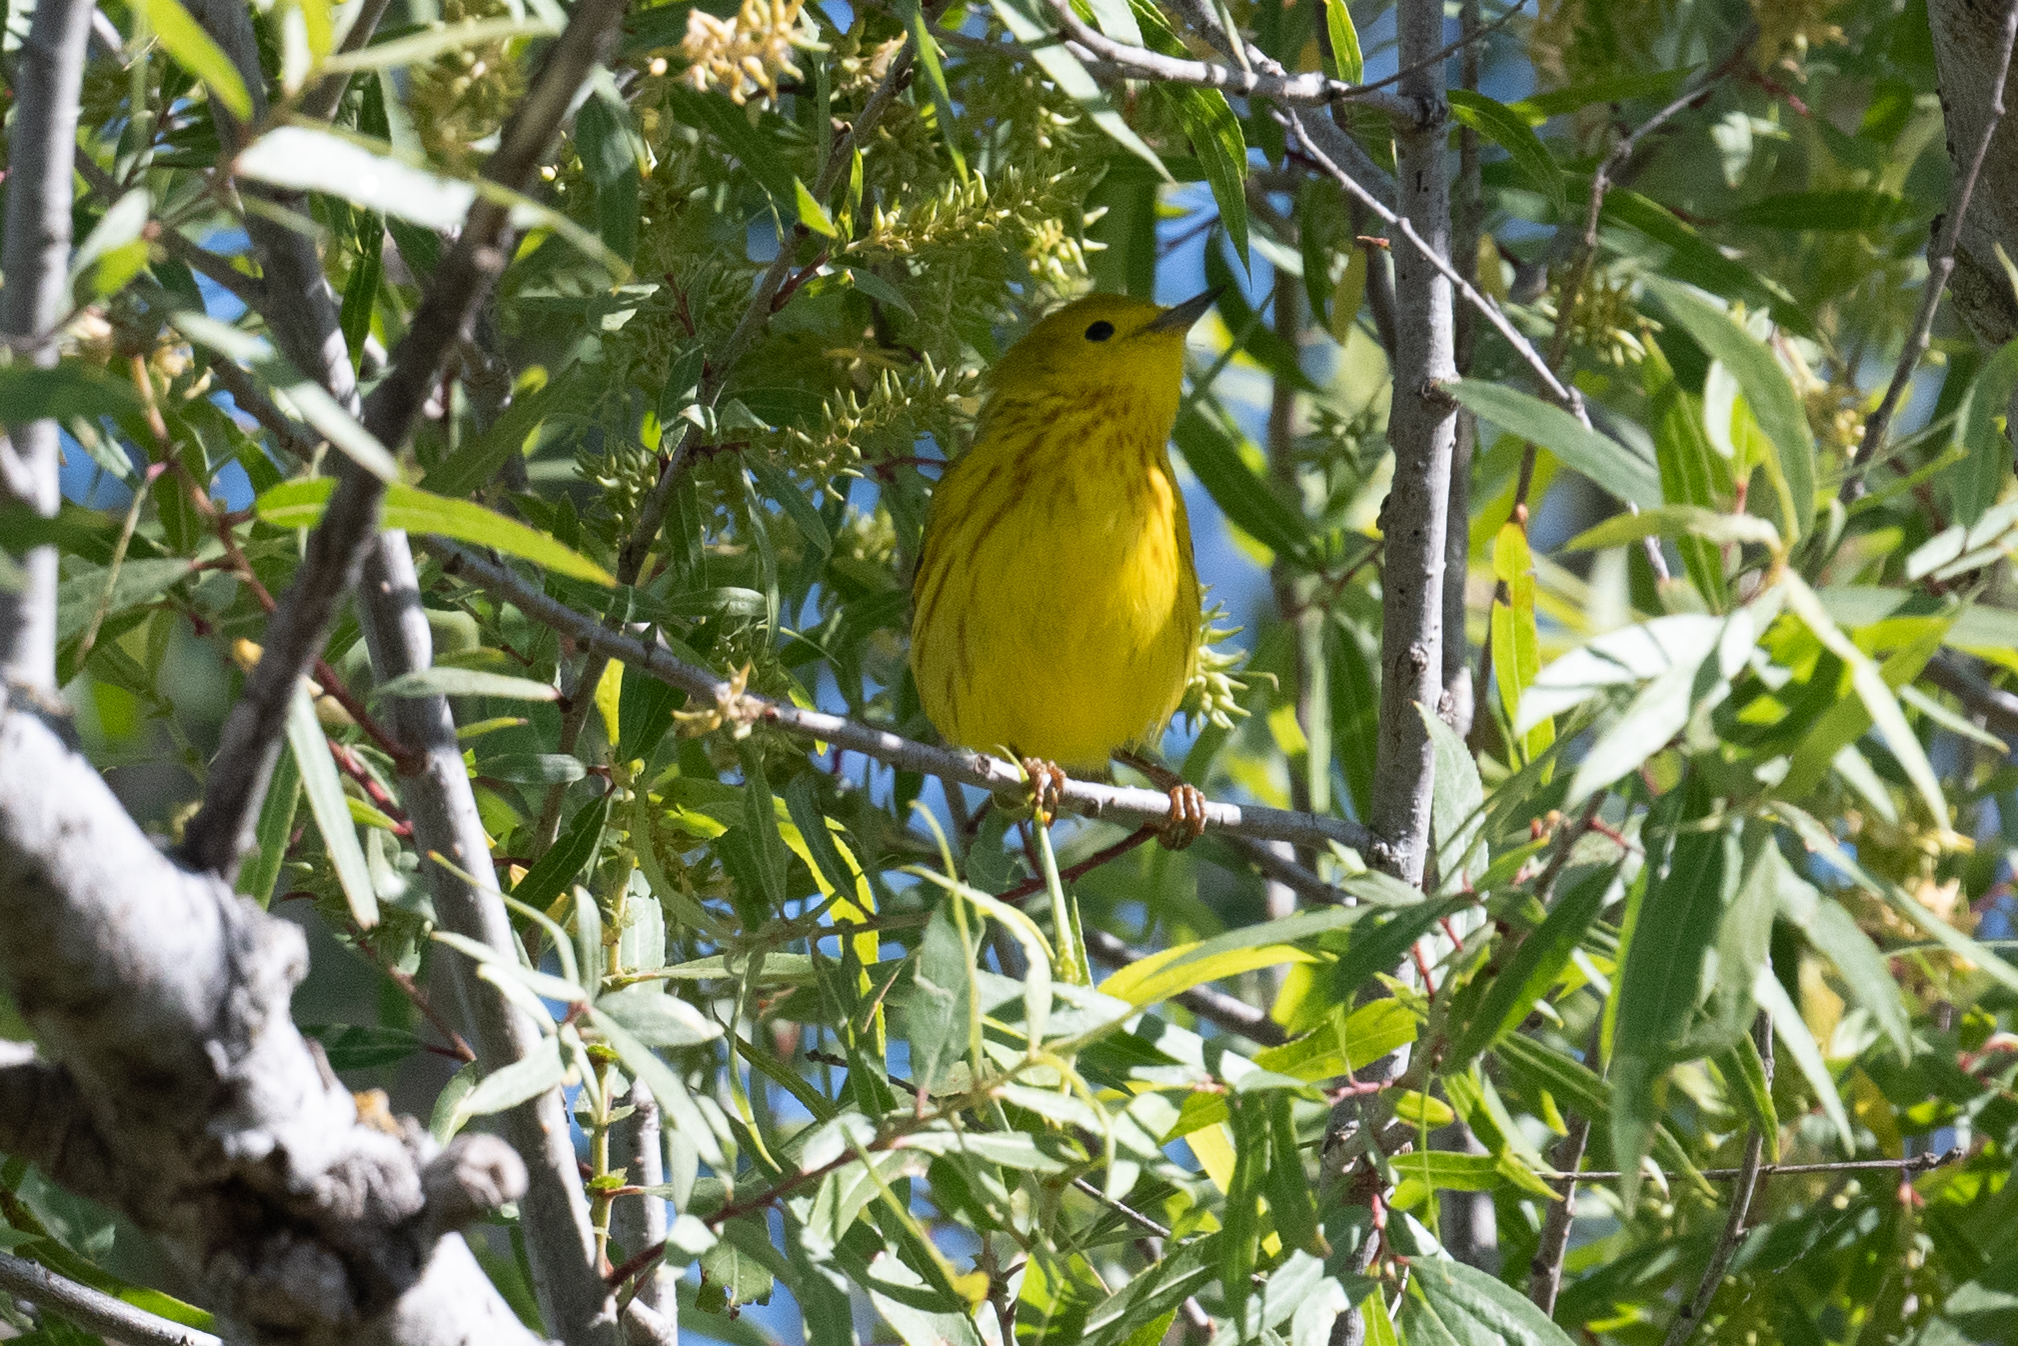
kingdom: Animalia
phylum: Chordata
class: Aves
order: Passeriformes
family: Parulidae
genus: Setophaga
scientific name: Setophaga petechia
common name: Yellow warbler
